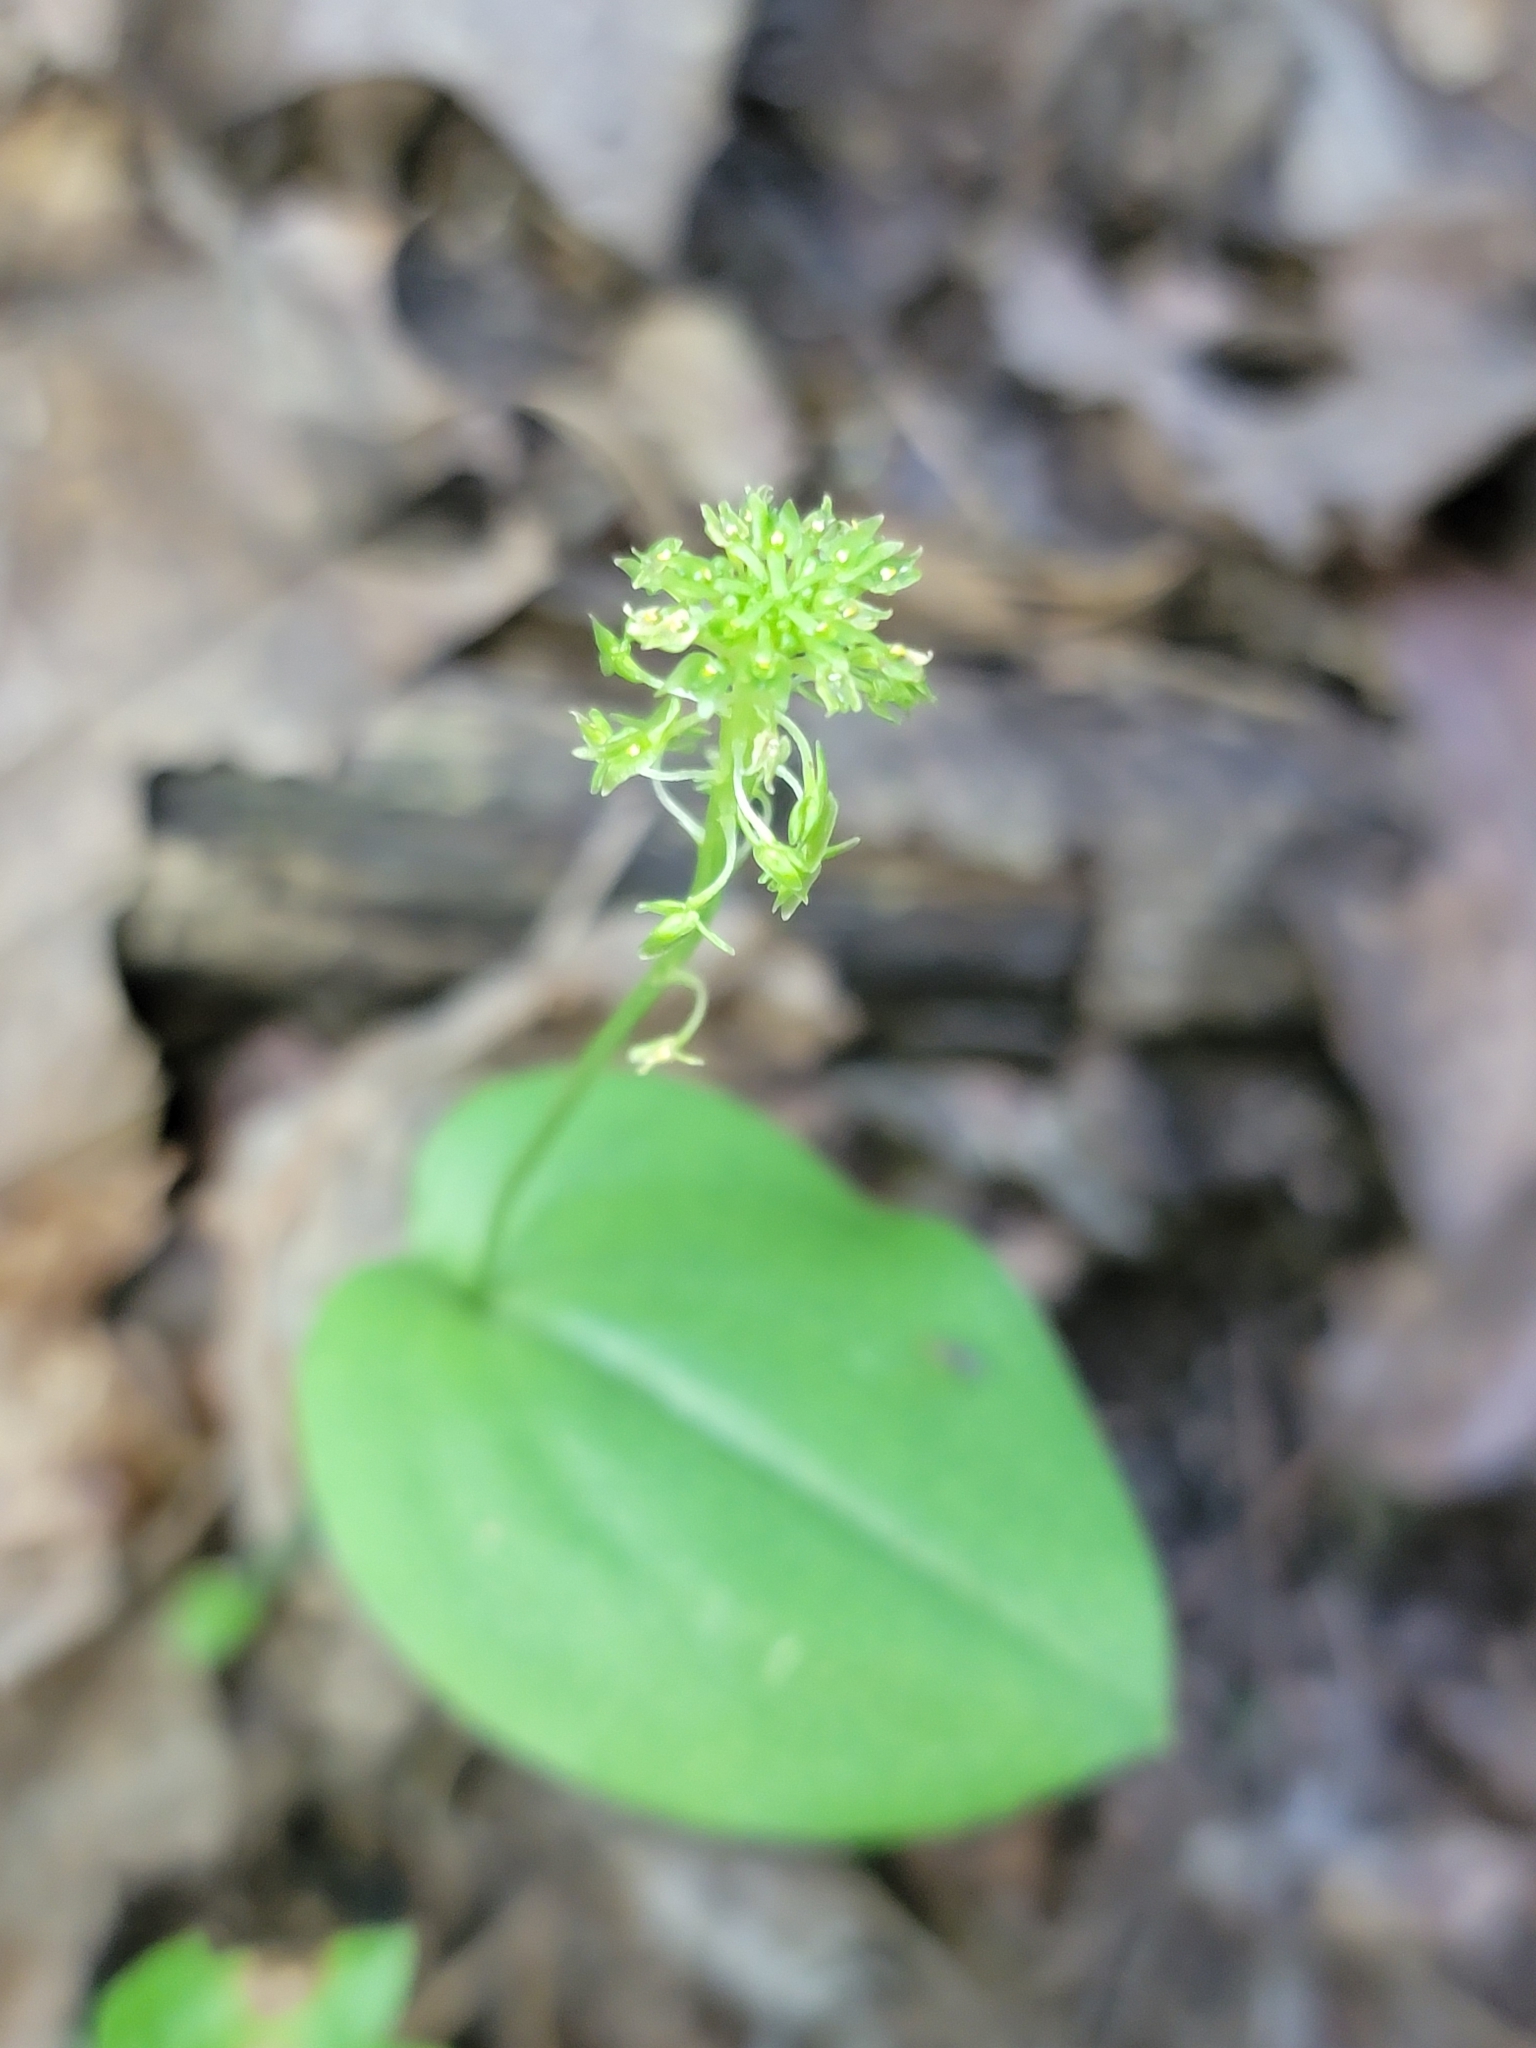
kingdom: Plantae
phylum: Tracheophyta
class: Liliopsida
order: Asparagales
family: Orchidaceae
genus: Malaxis
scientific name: Malaxis unifolia
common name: Green adder's-mouth
